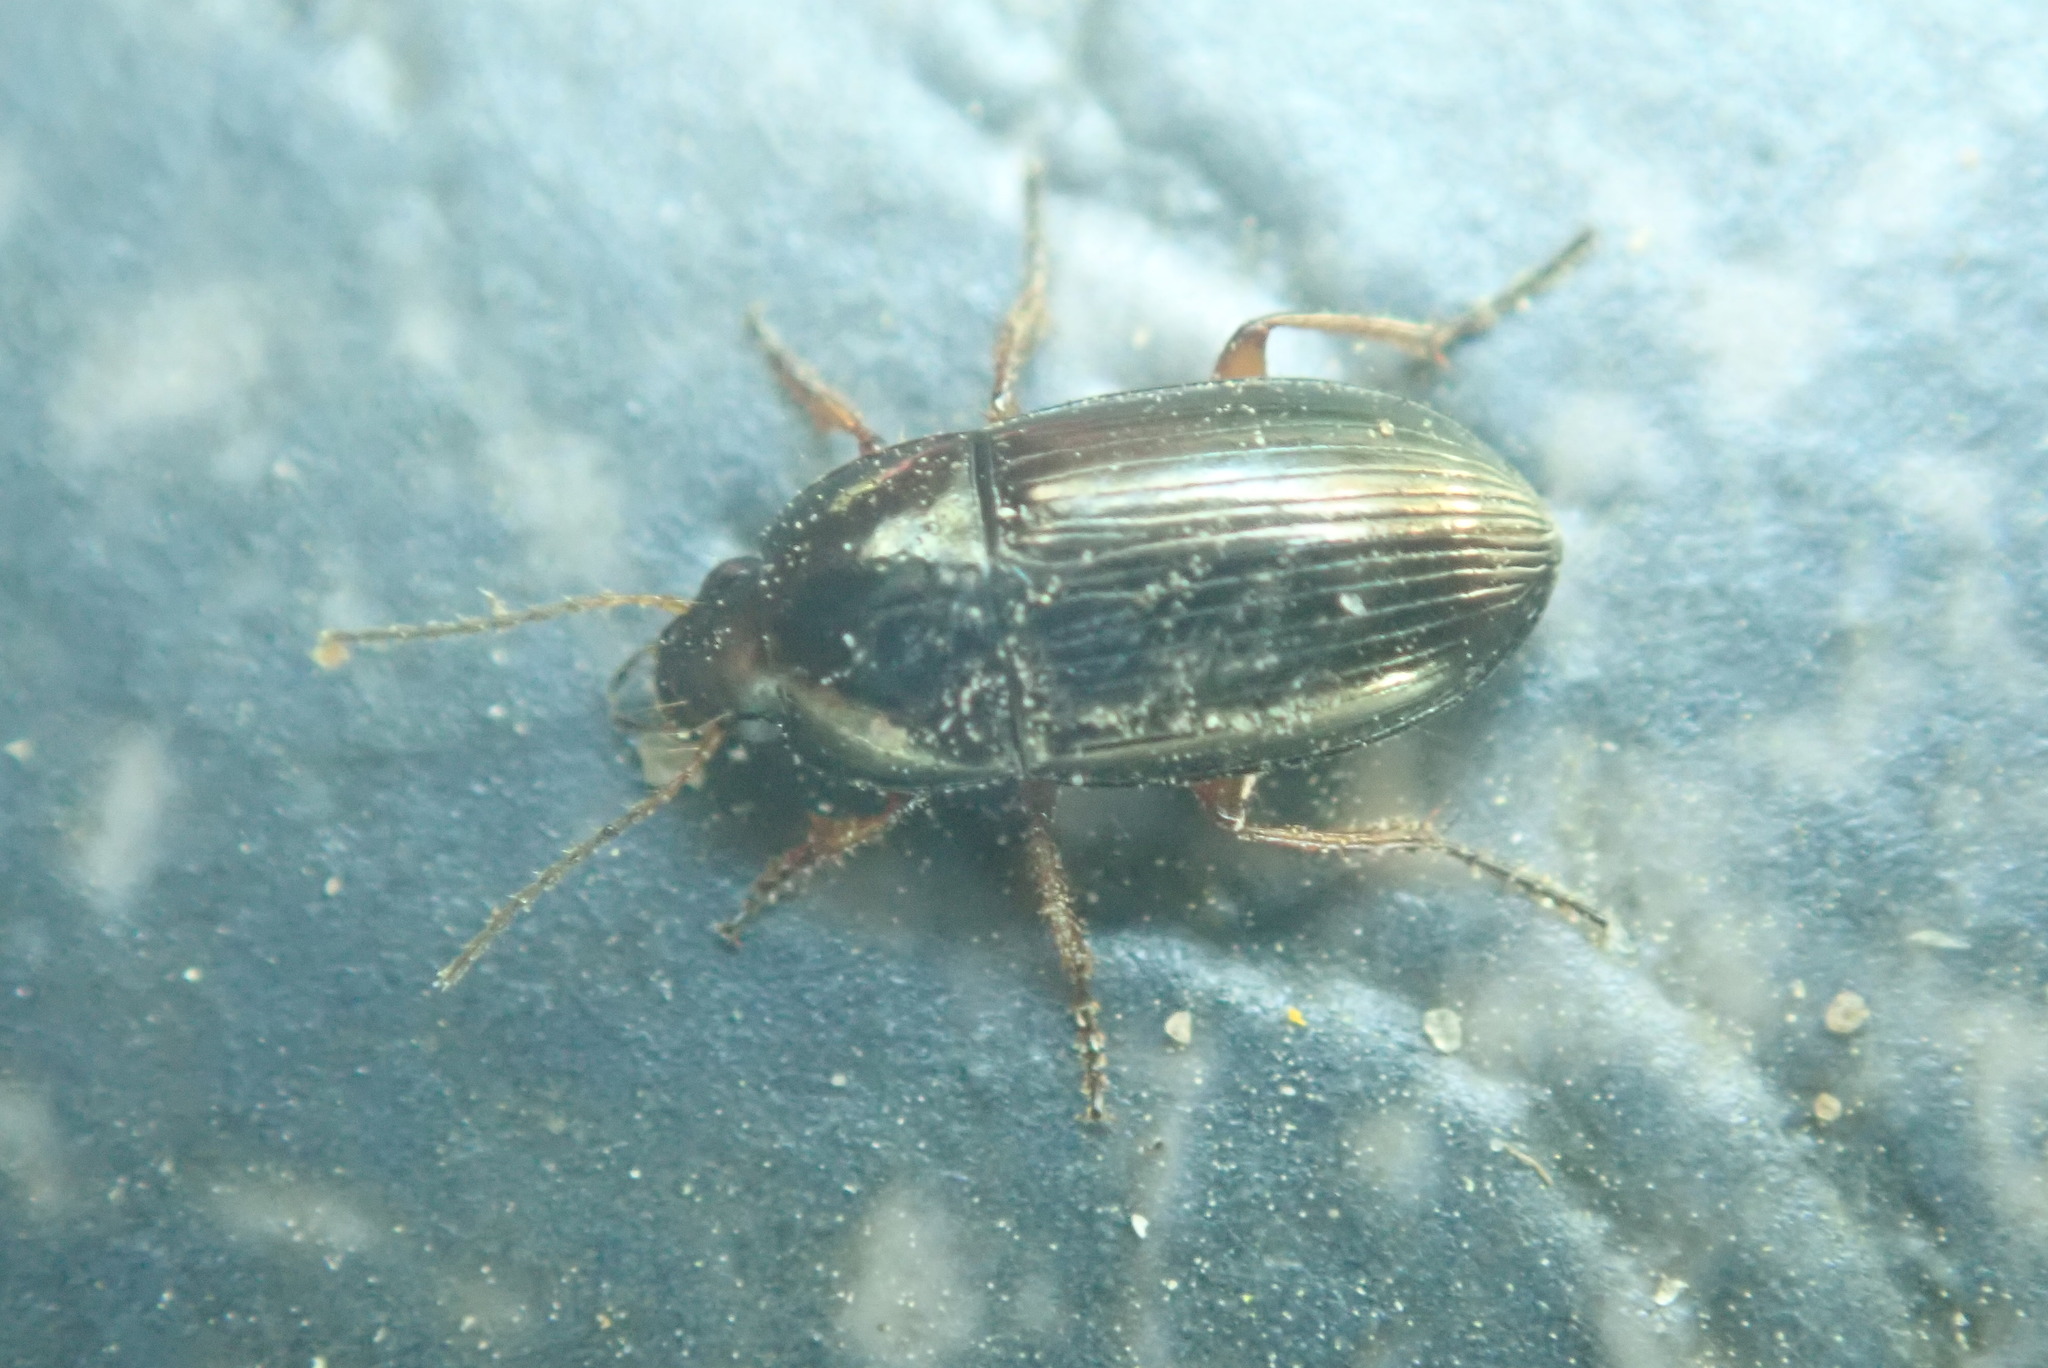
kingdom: Animalia
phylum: Arthropoda
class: Insecta
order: Coleoptera
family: Carabidae
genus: Amara
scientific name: Amara aenea
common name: Common sun beetle
